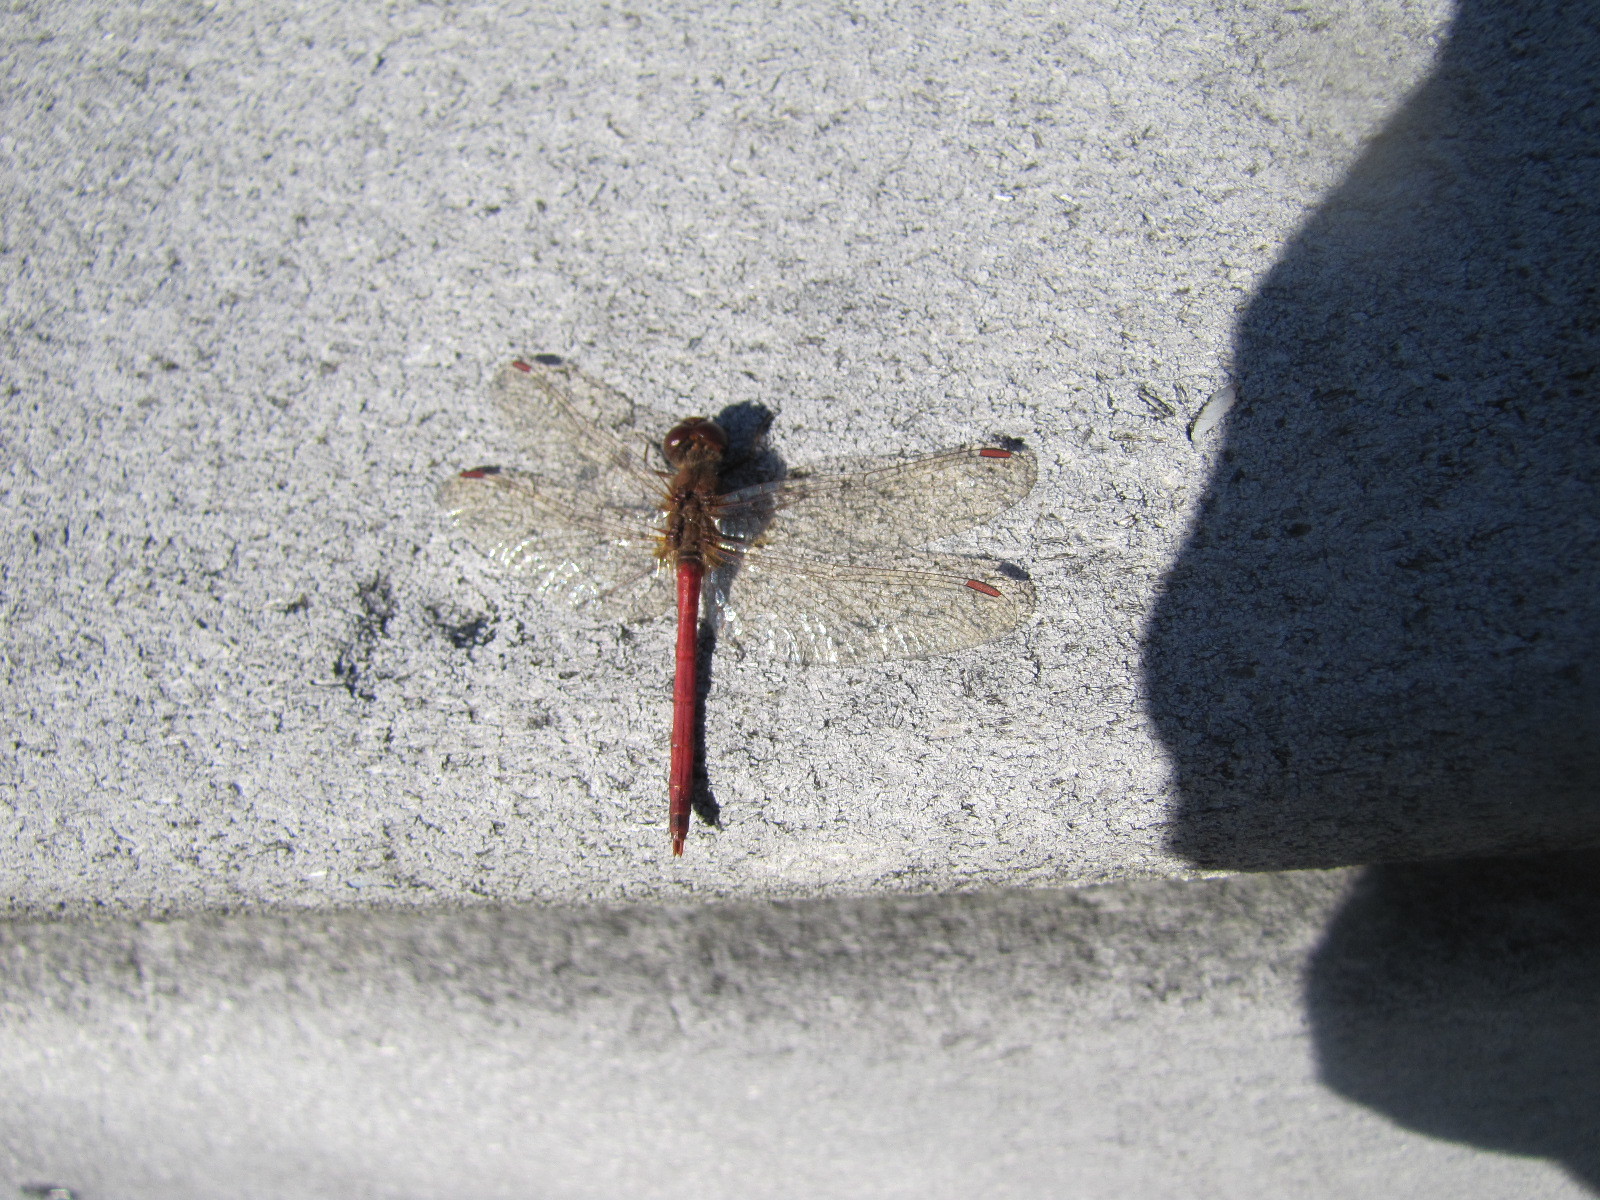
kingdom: Animalia
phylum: Arthropoda
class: Insecta
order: Odonata
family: Libellulidae
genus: Sympetrum
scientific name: Sympetrum vicinum
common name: Autumn meadowhawk
